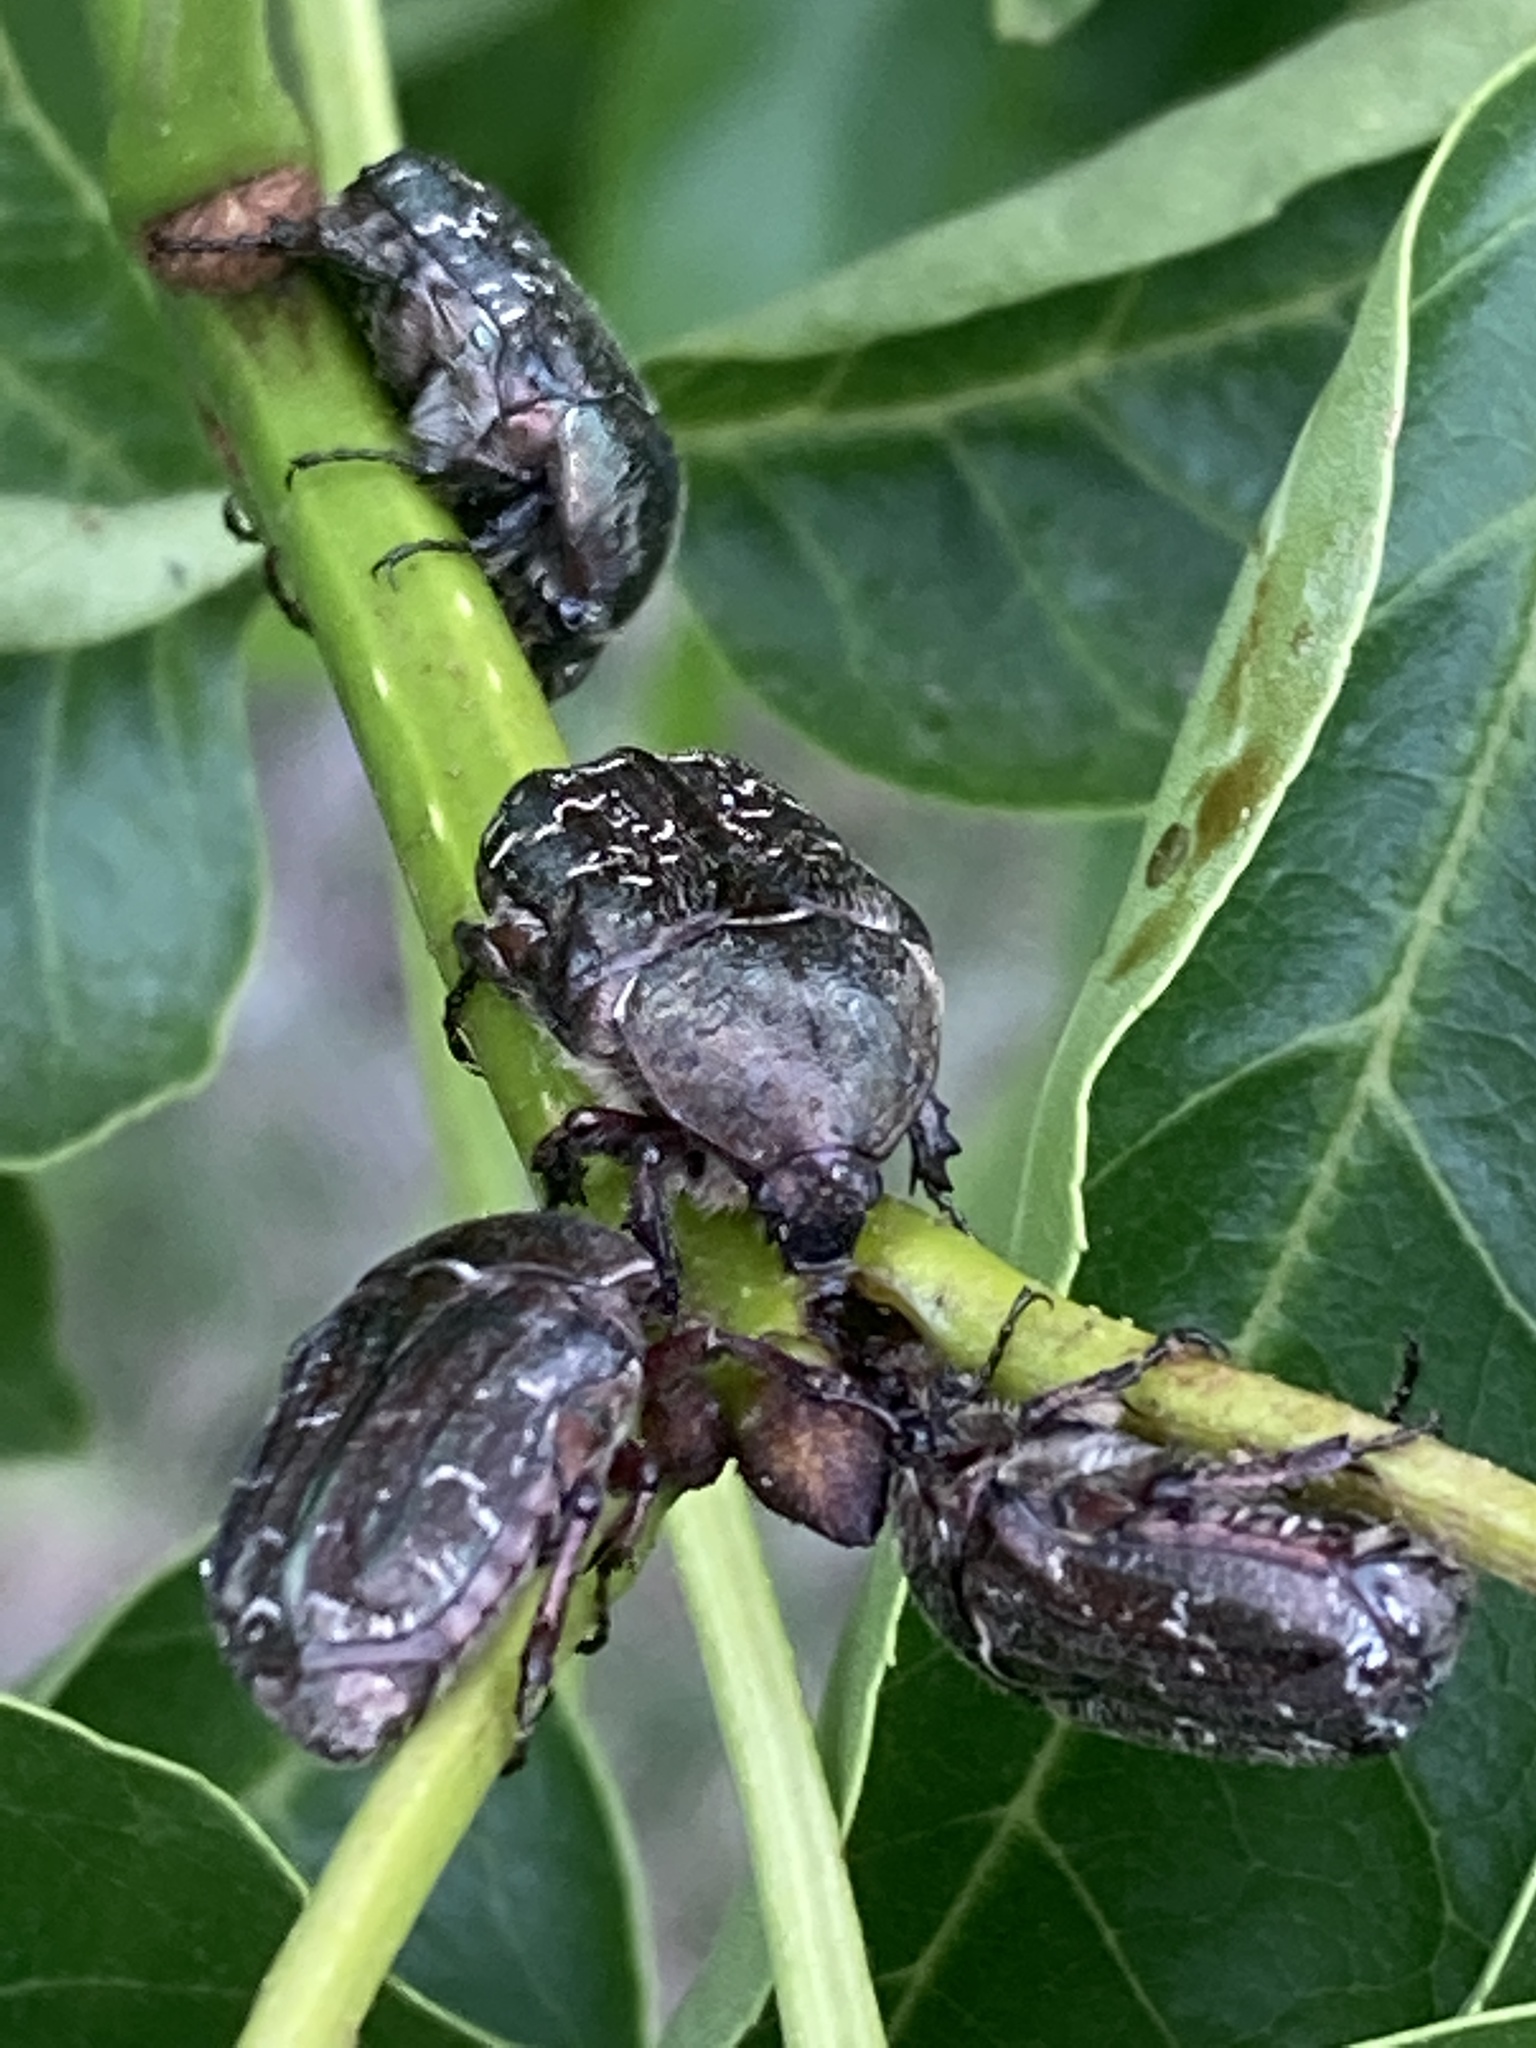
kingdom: Animalia
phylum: Arthropoda
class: Insecta
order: Coleoptera
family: Scarabaeidae
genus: Euphoria
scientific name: Euphoria sepulcralis
